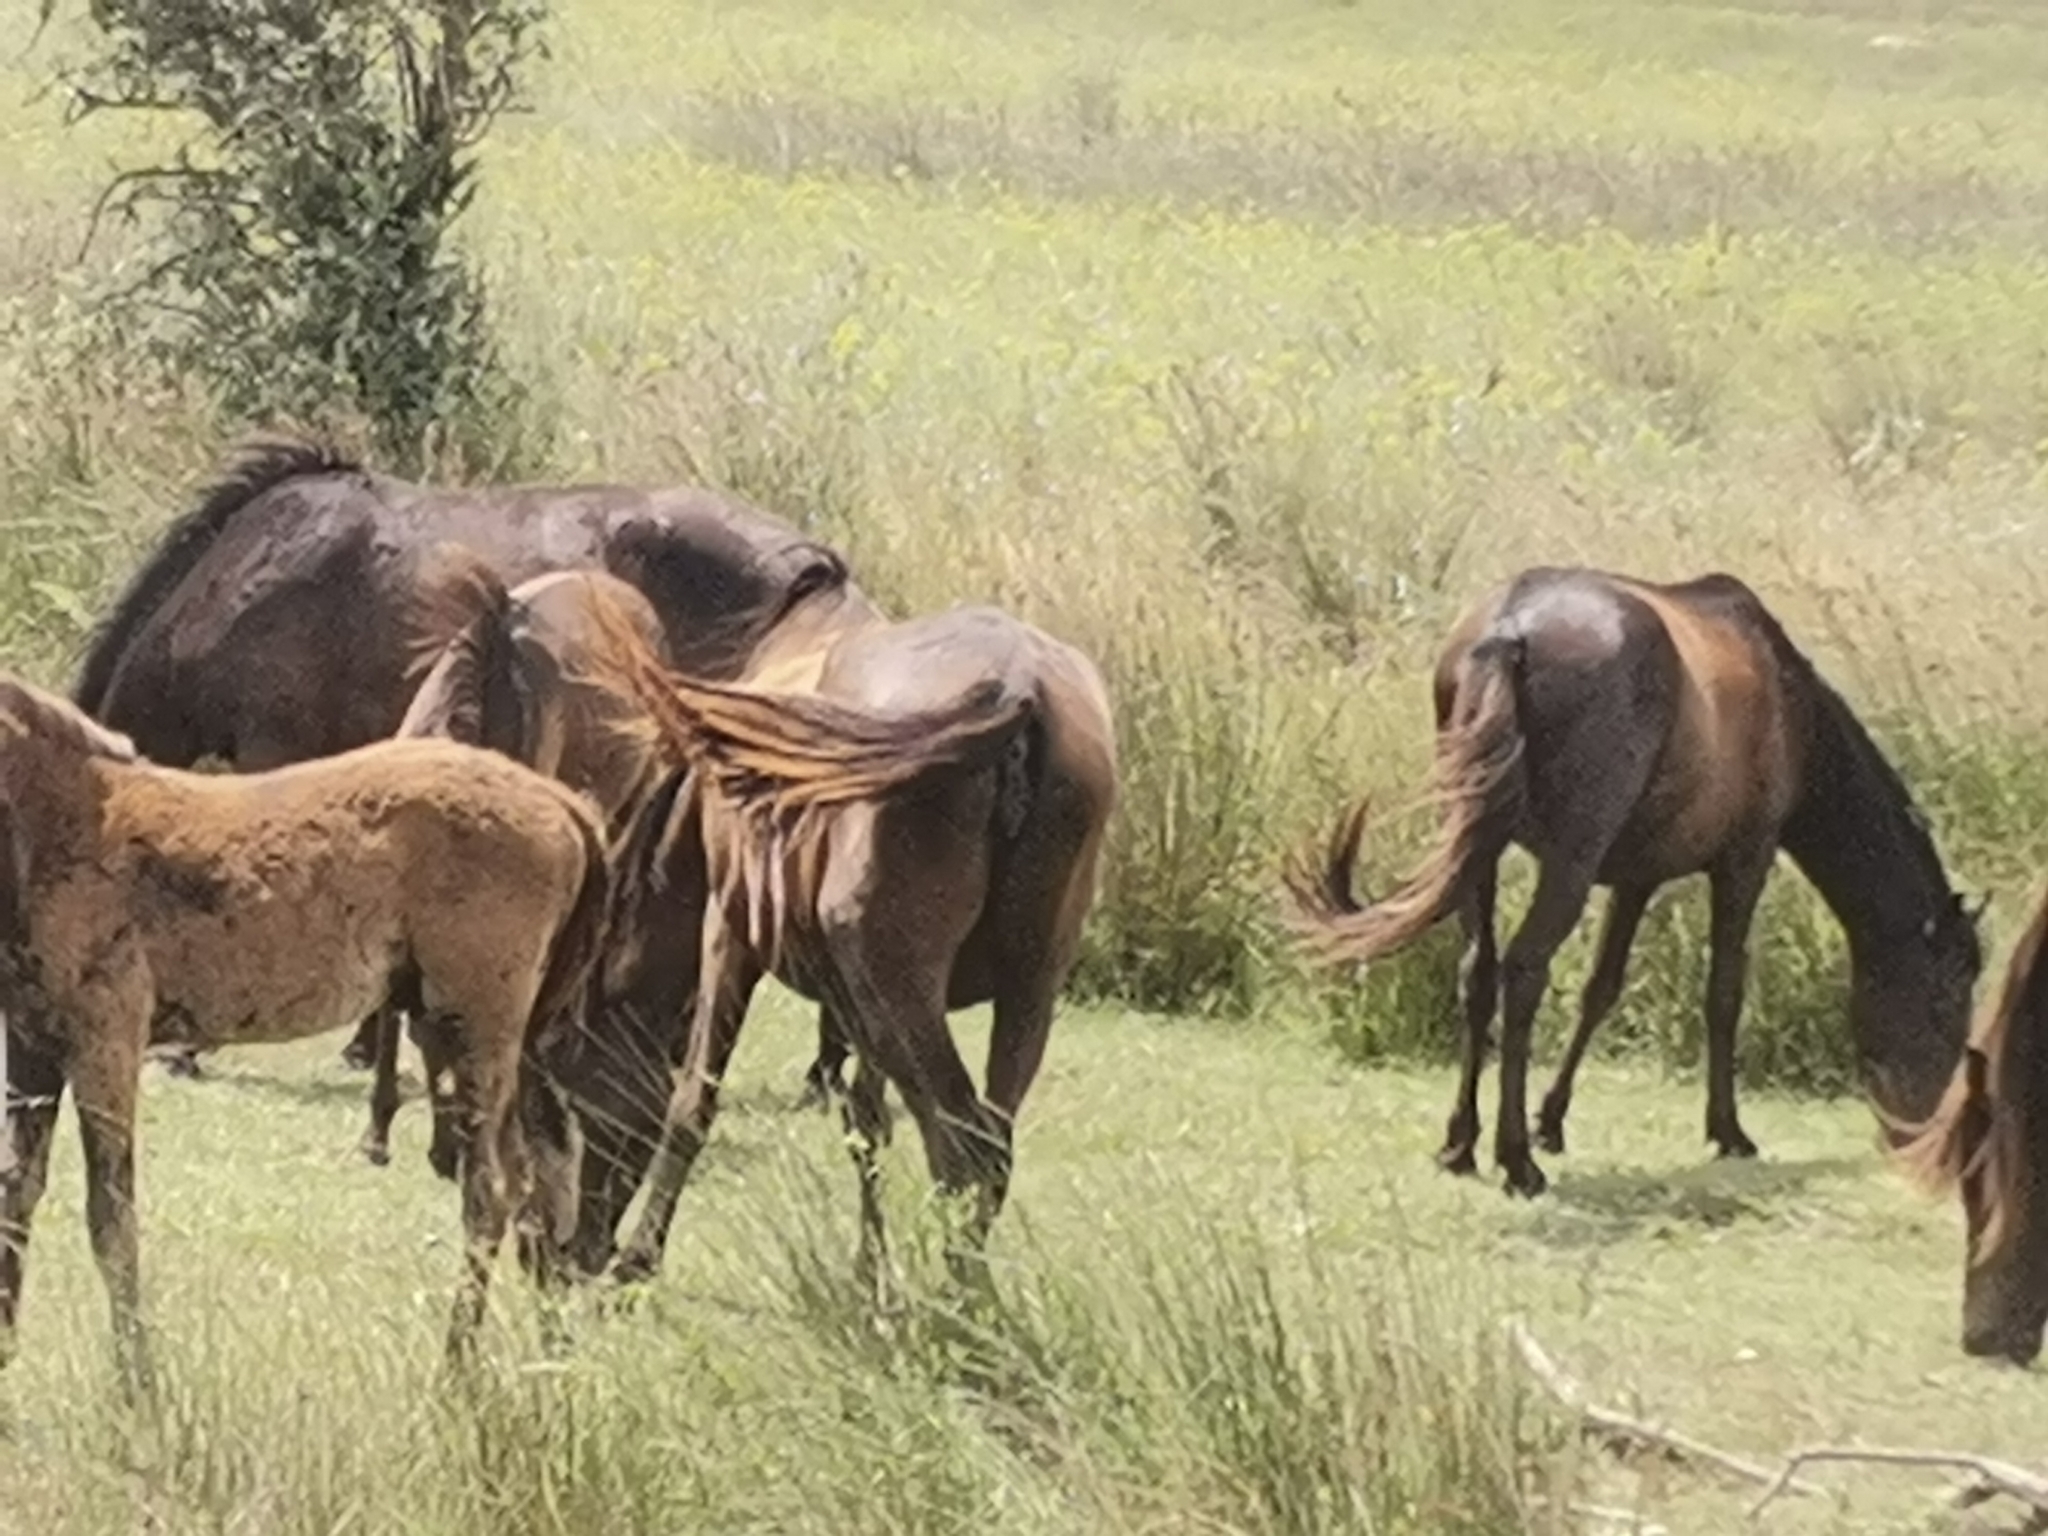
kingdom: Animalia
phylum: Chordata
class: Mammalia
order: Perissodactyla
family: Equidae
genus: Equus
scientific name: Equus caballus
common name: Horse
